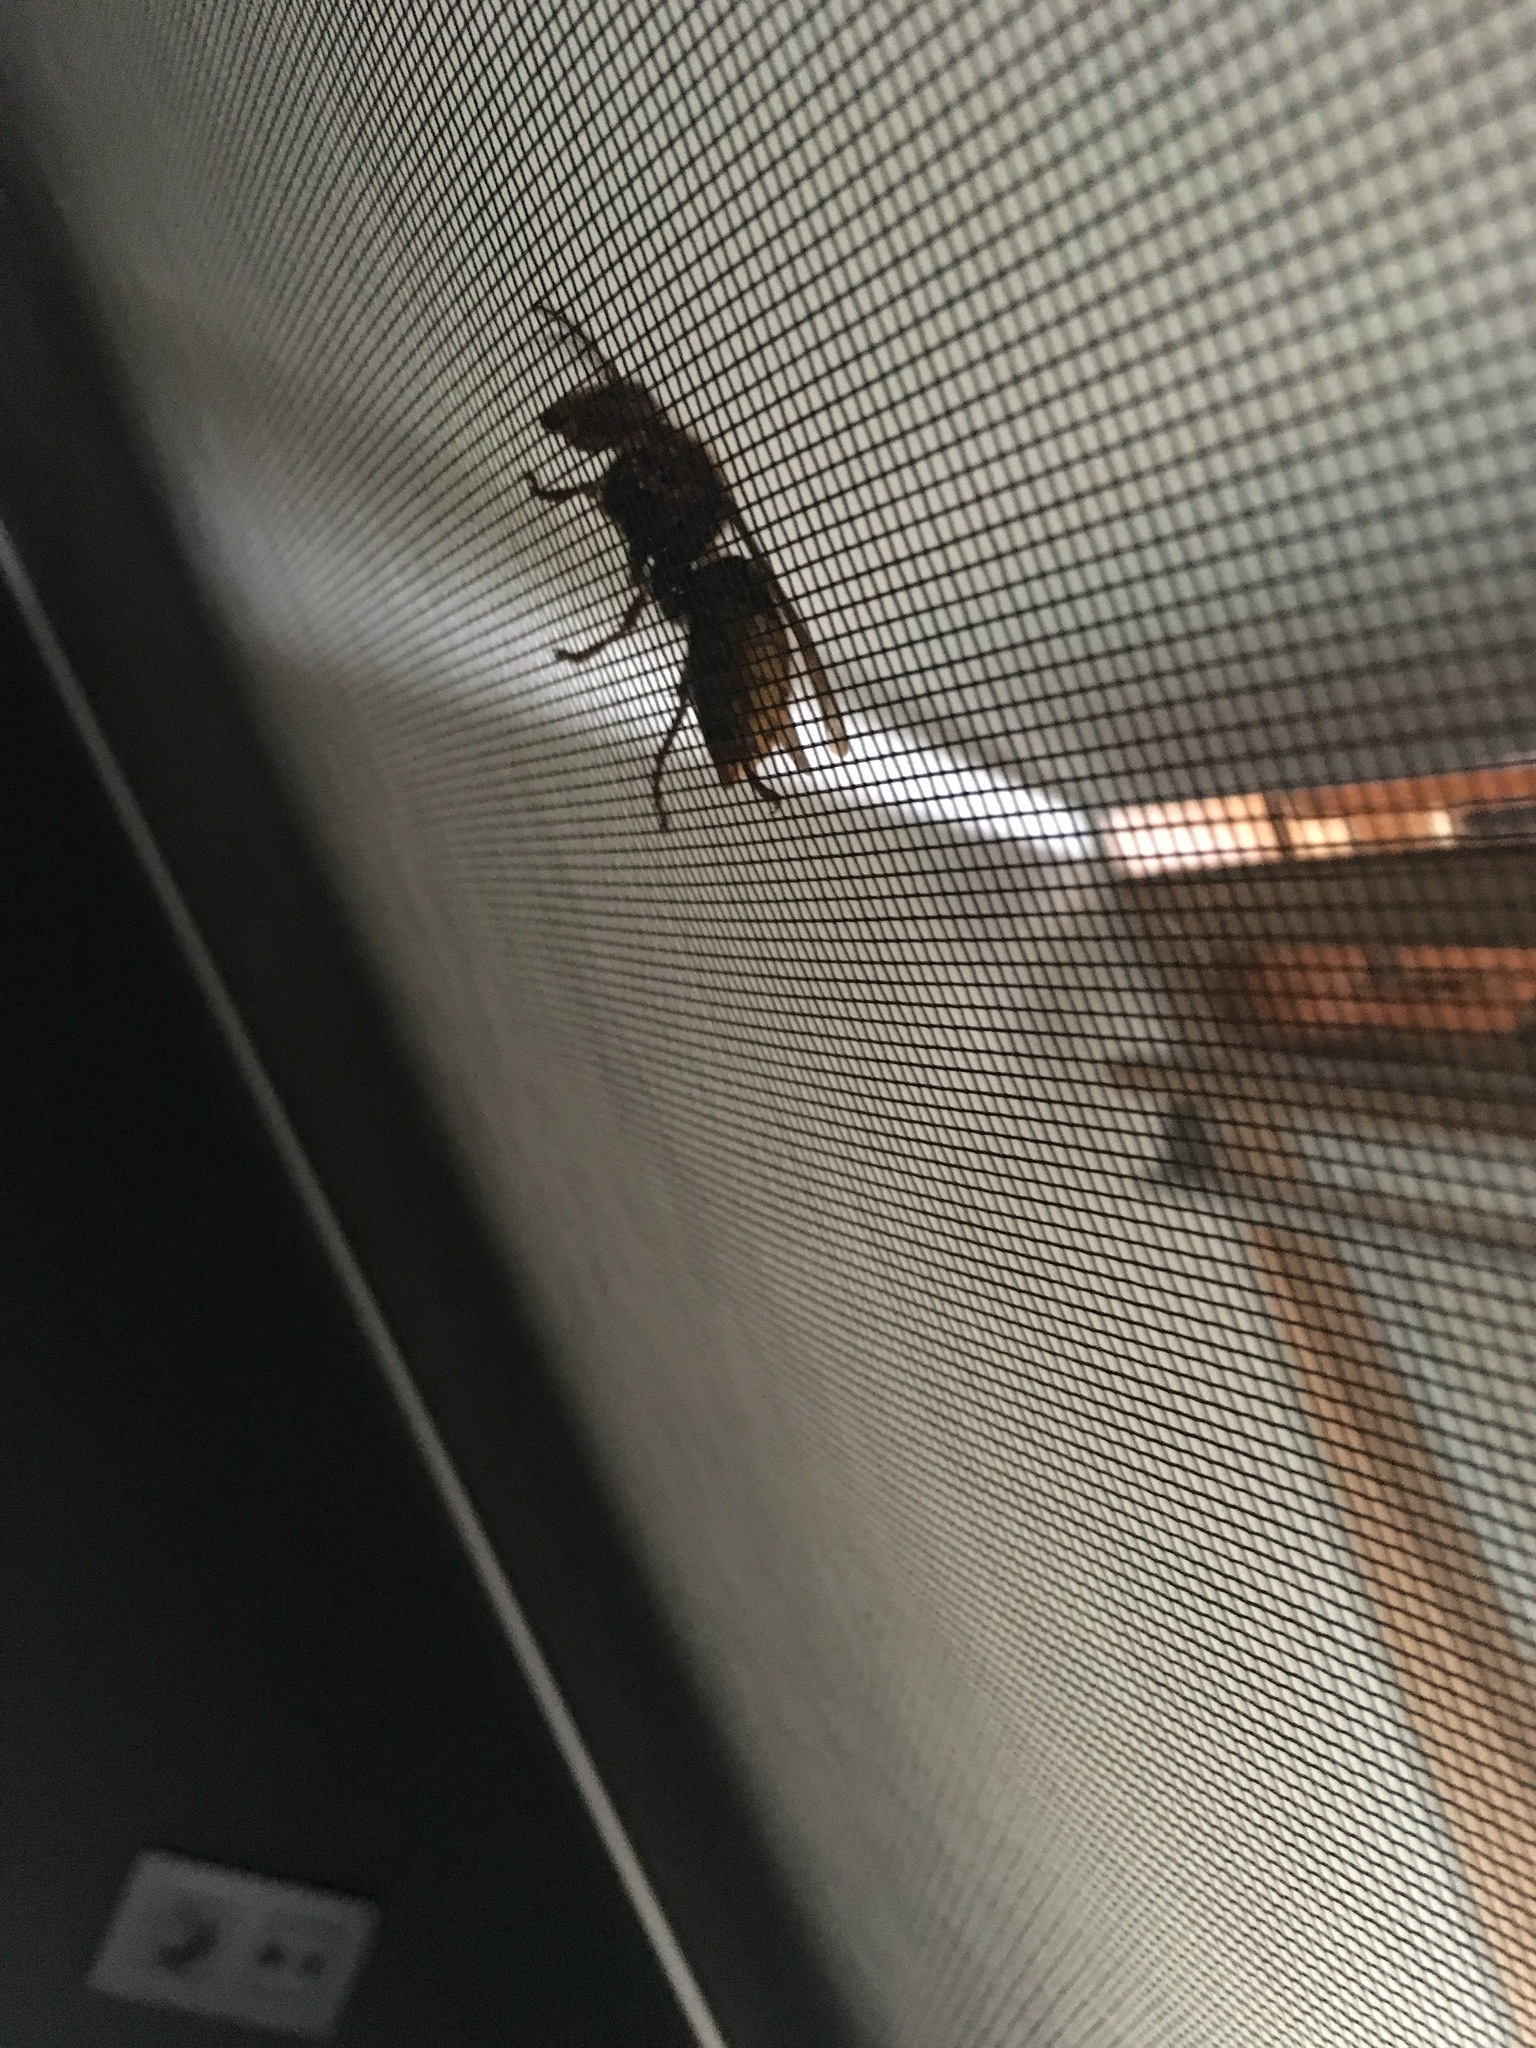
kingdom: Animalia
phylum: Arthropoda
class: Insecta
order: Hymenoptera
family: Vespidae
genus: Vespa
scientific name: Vespa crabro
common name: Hornet
